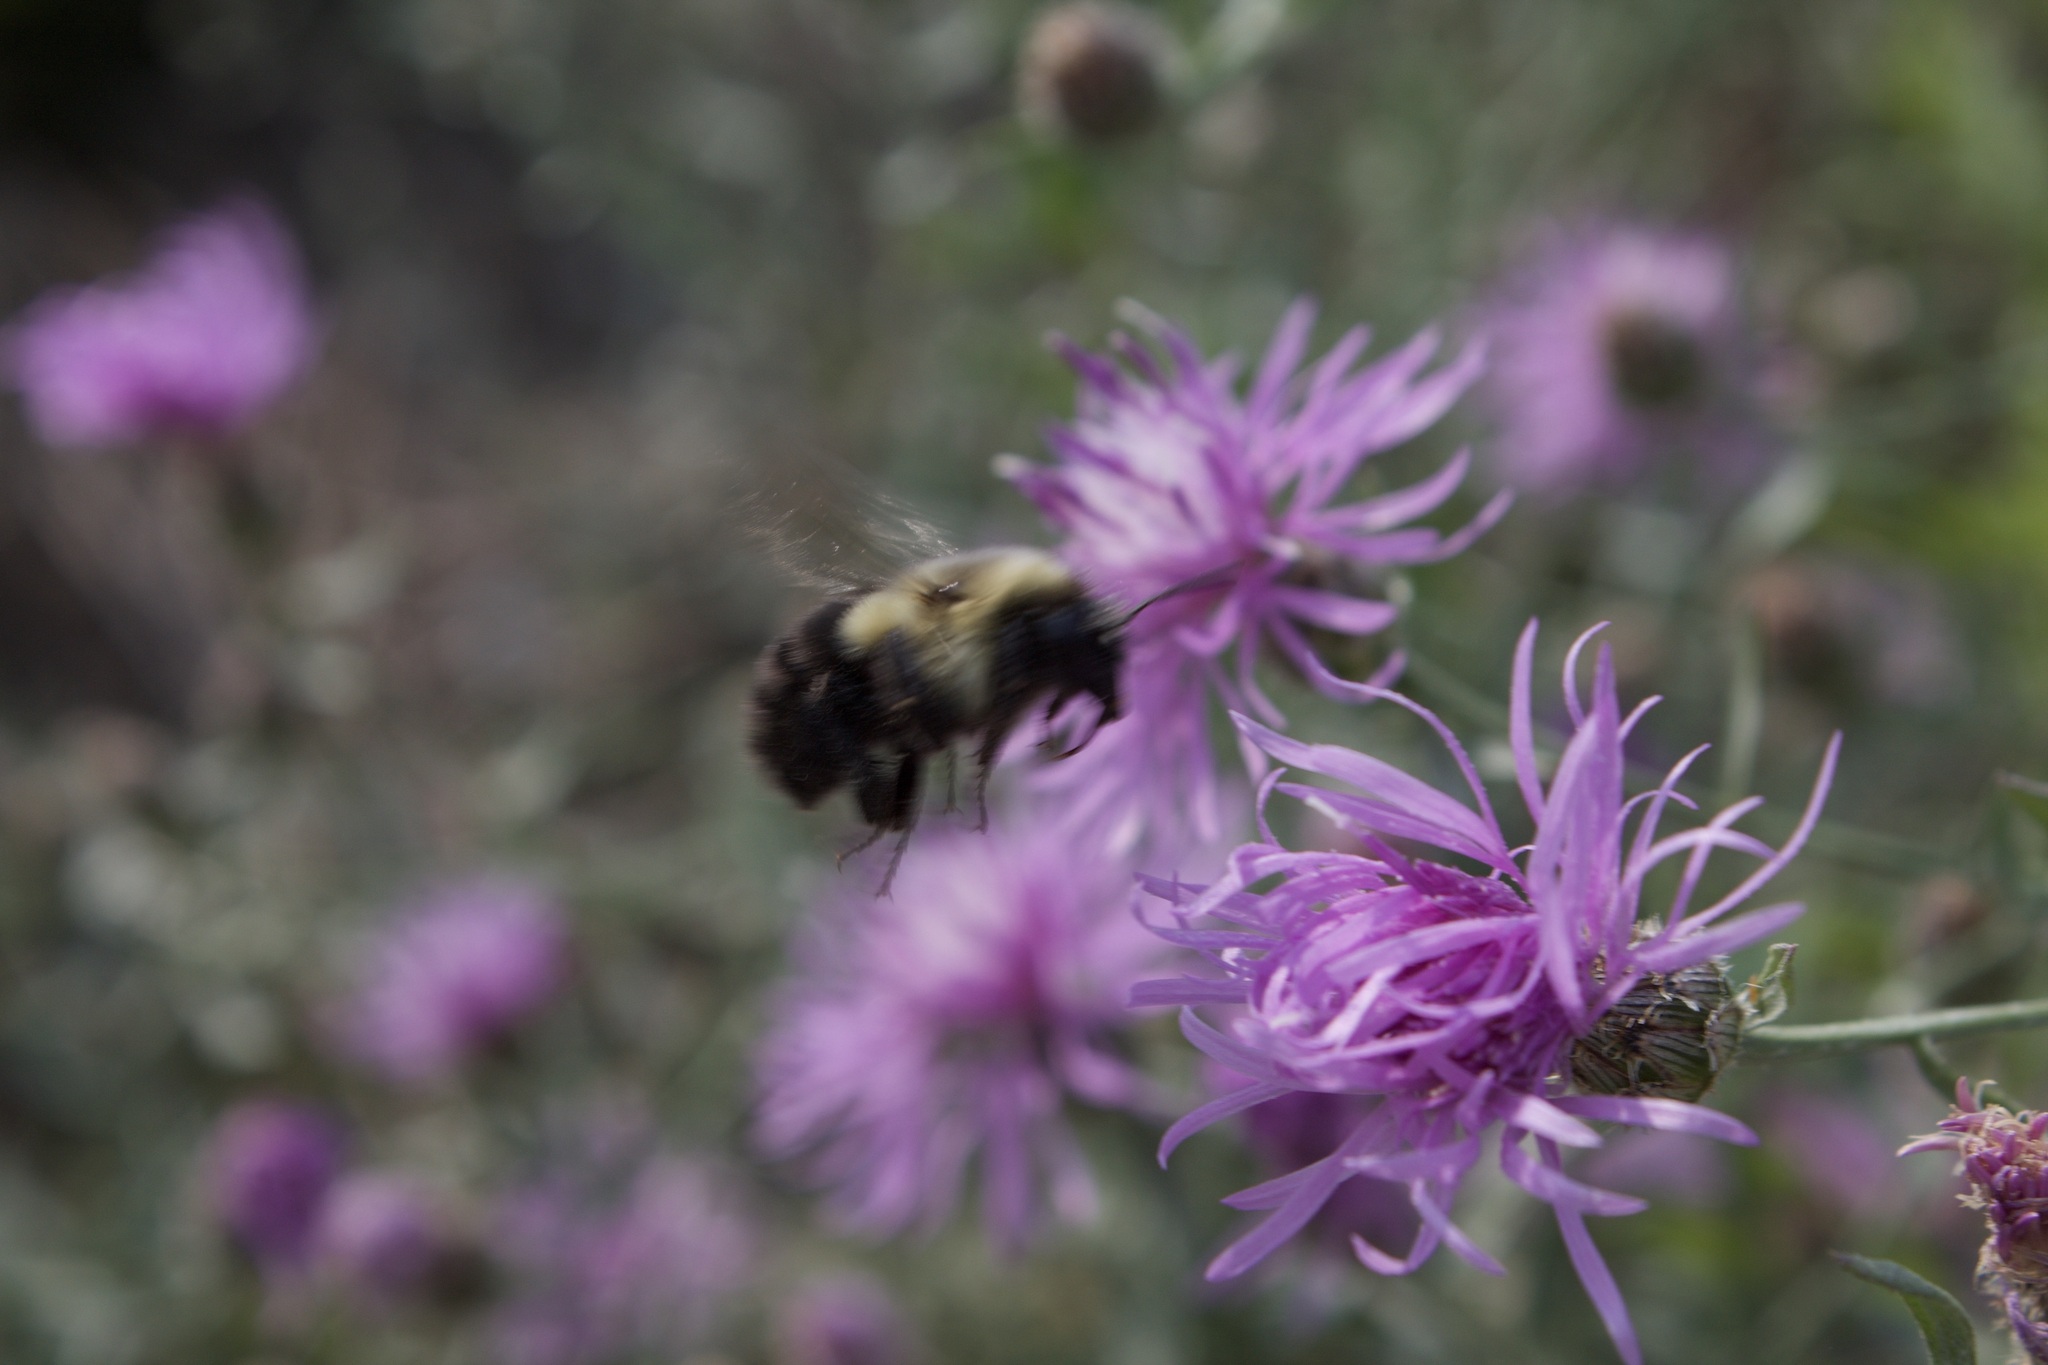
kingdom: Animalia
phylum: Arthropoda
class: Insecta
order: Hymenoptera
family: Apidae
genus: Bombus
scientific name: Bombus impatiens
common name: Common eastern bumble bee
